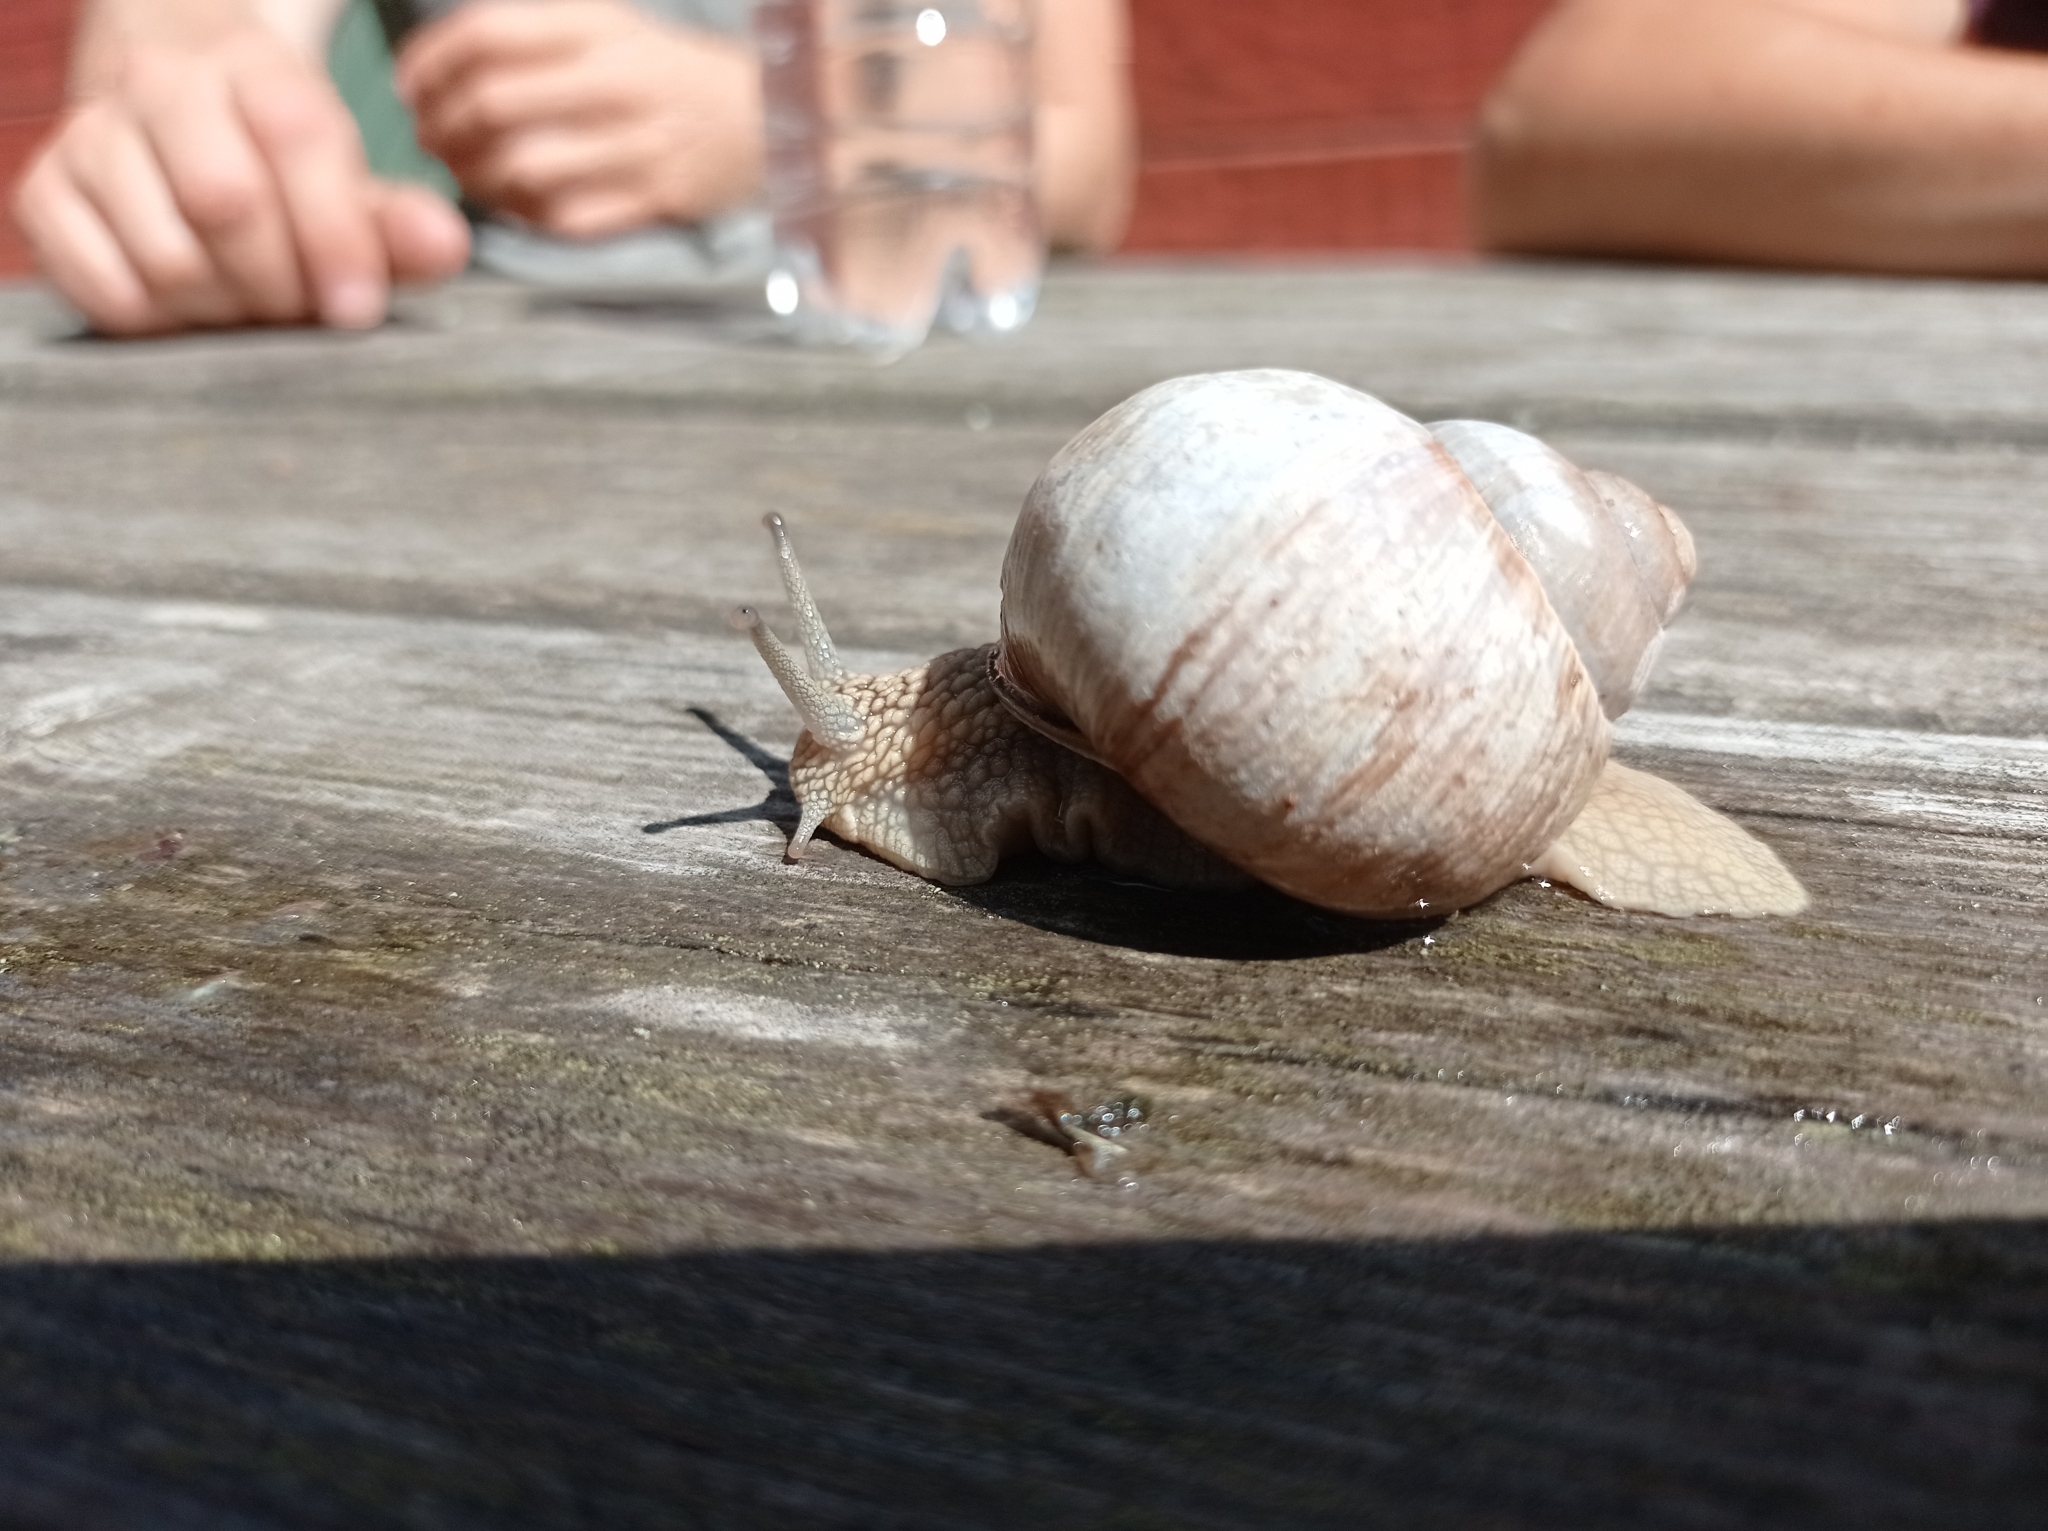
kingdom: Animalia
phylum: Mollusca
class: Gastropoda
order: Stylommatophora
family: Helicidae
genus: Helix
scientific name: Helix pomatia
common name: Roman snail
